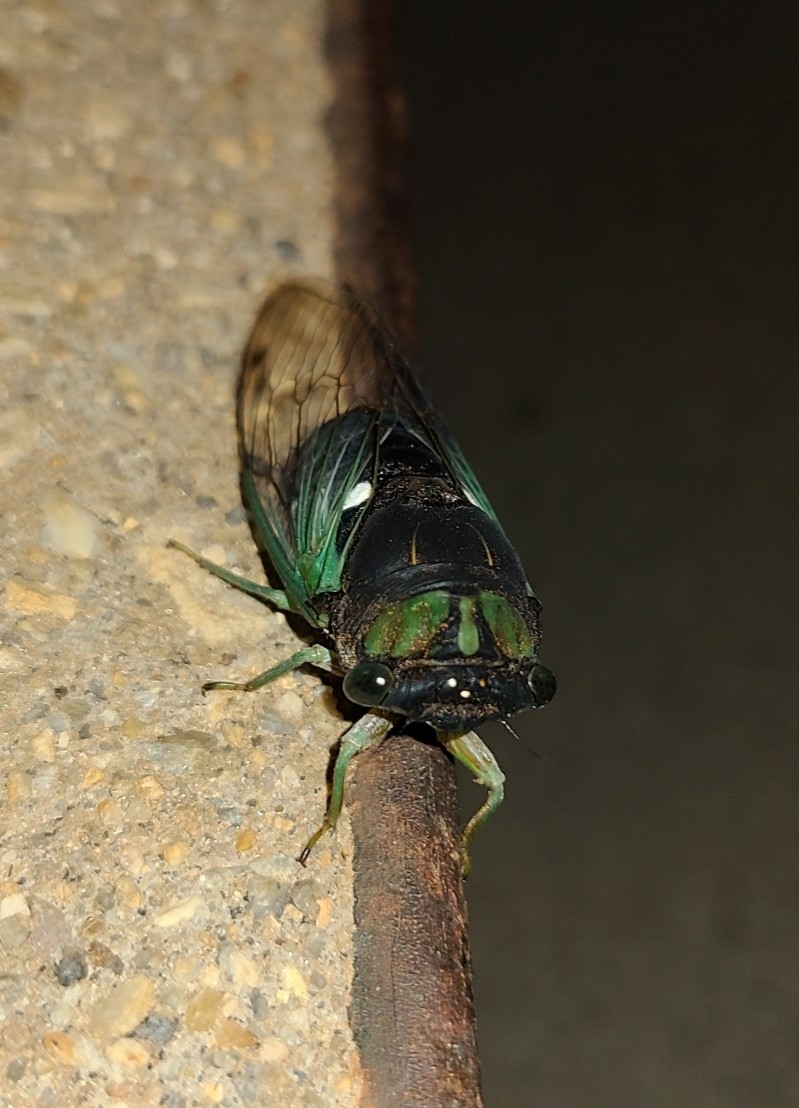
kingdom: Animalia
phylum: Arthropoda
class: Insecta
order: Hemiptera
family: Cicadidae
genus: Neotibicen
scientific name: Neotibicen tibicen
